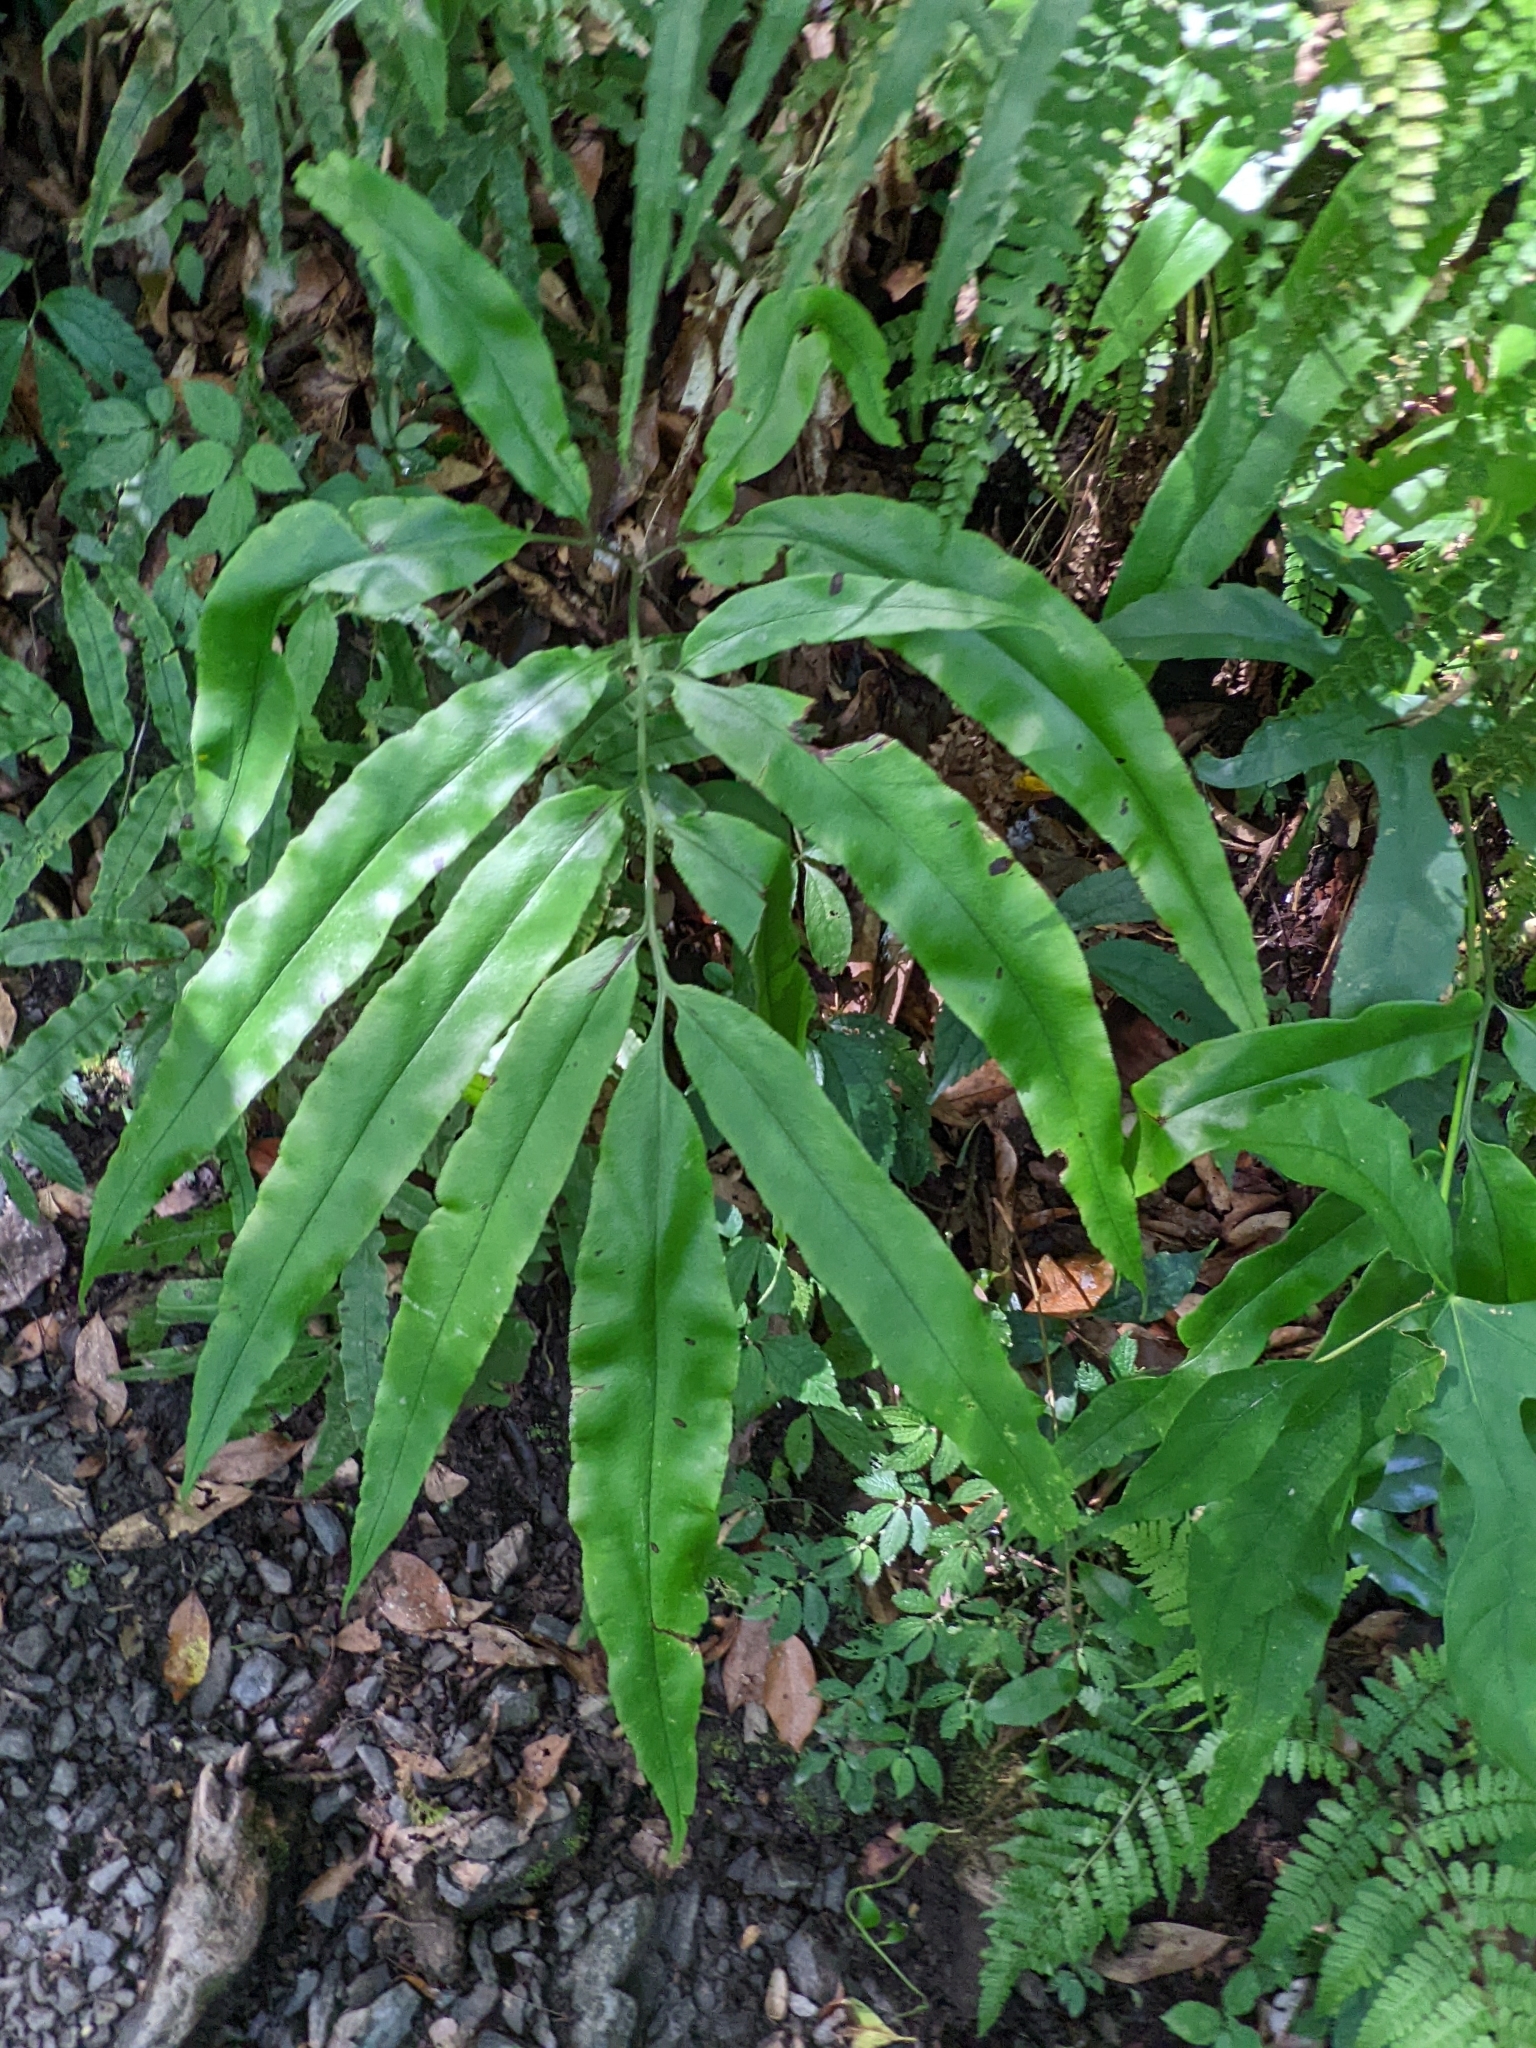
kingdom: Plantae
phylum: Tracheophyta
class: Polypodiopsida
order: Polypodiales
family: Pteridaceae
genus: Coniogramme
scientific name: Coniogramme japonica
